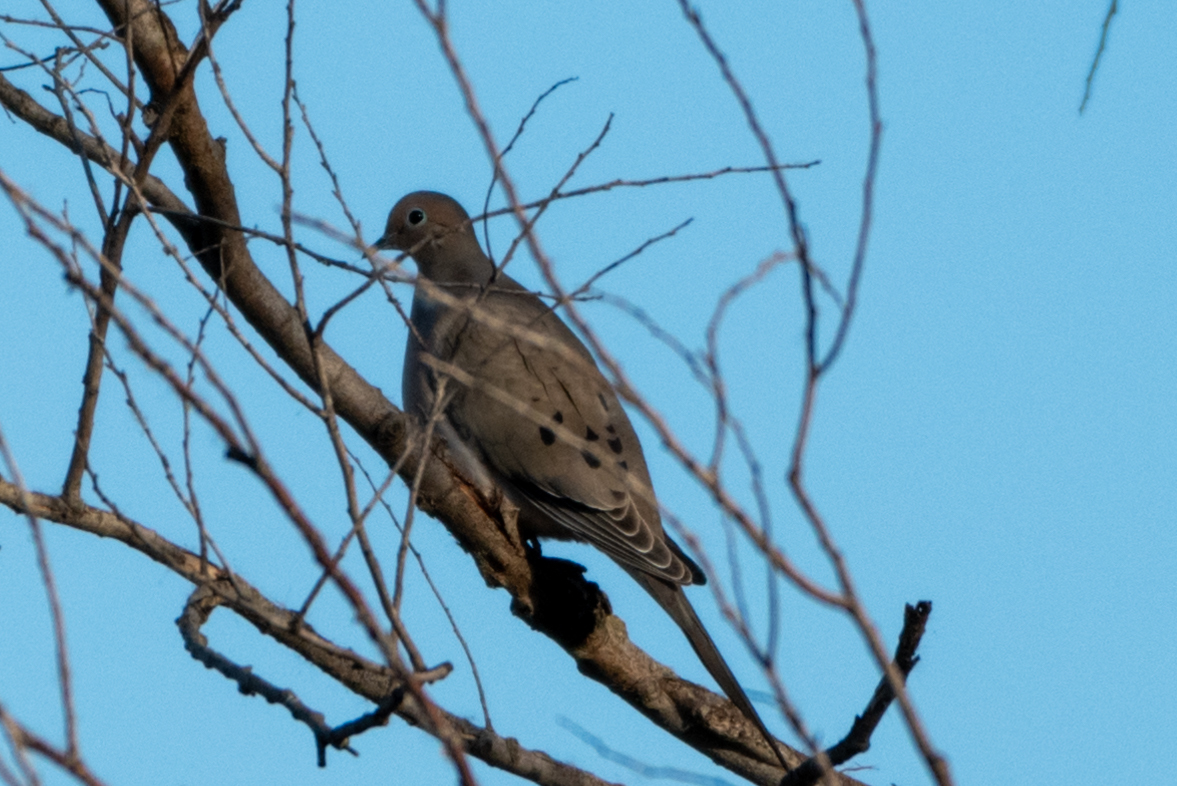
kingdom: Animalia
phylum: Chordata
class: Aves
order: Columbiformes
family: Columbidae
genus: Zenaida
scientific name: Zenaida macroura
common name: Mourning dove
